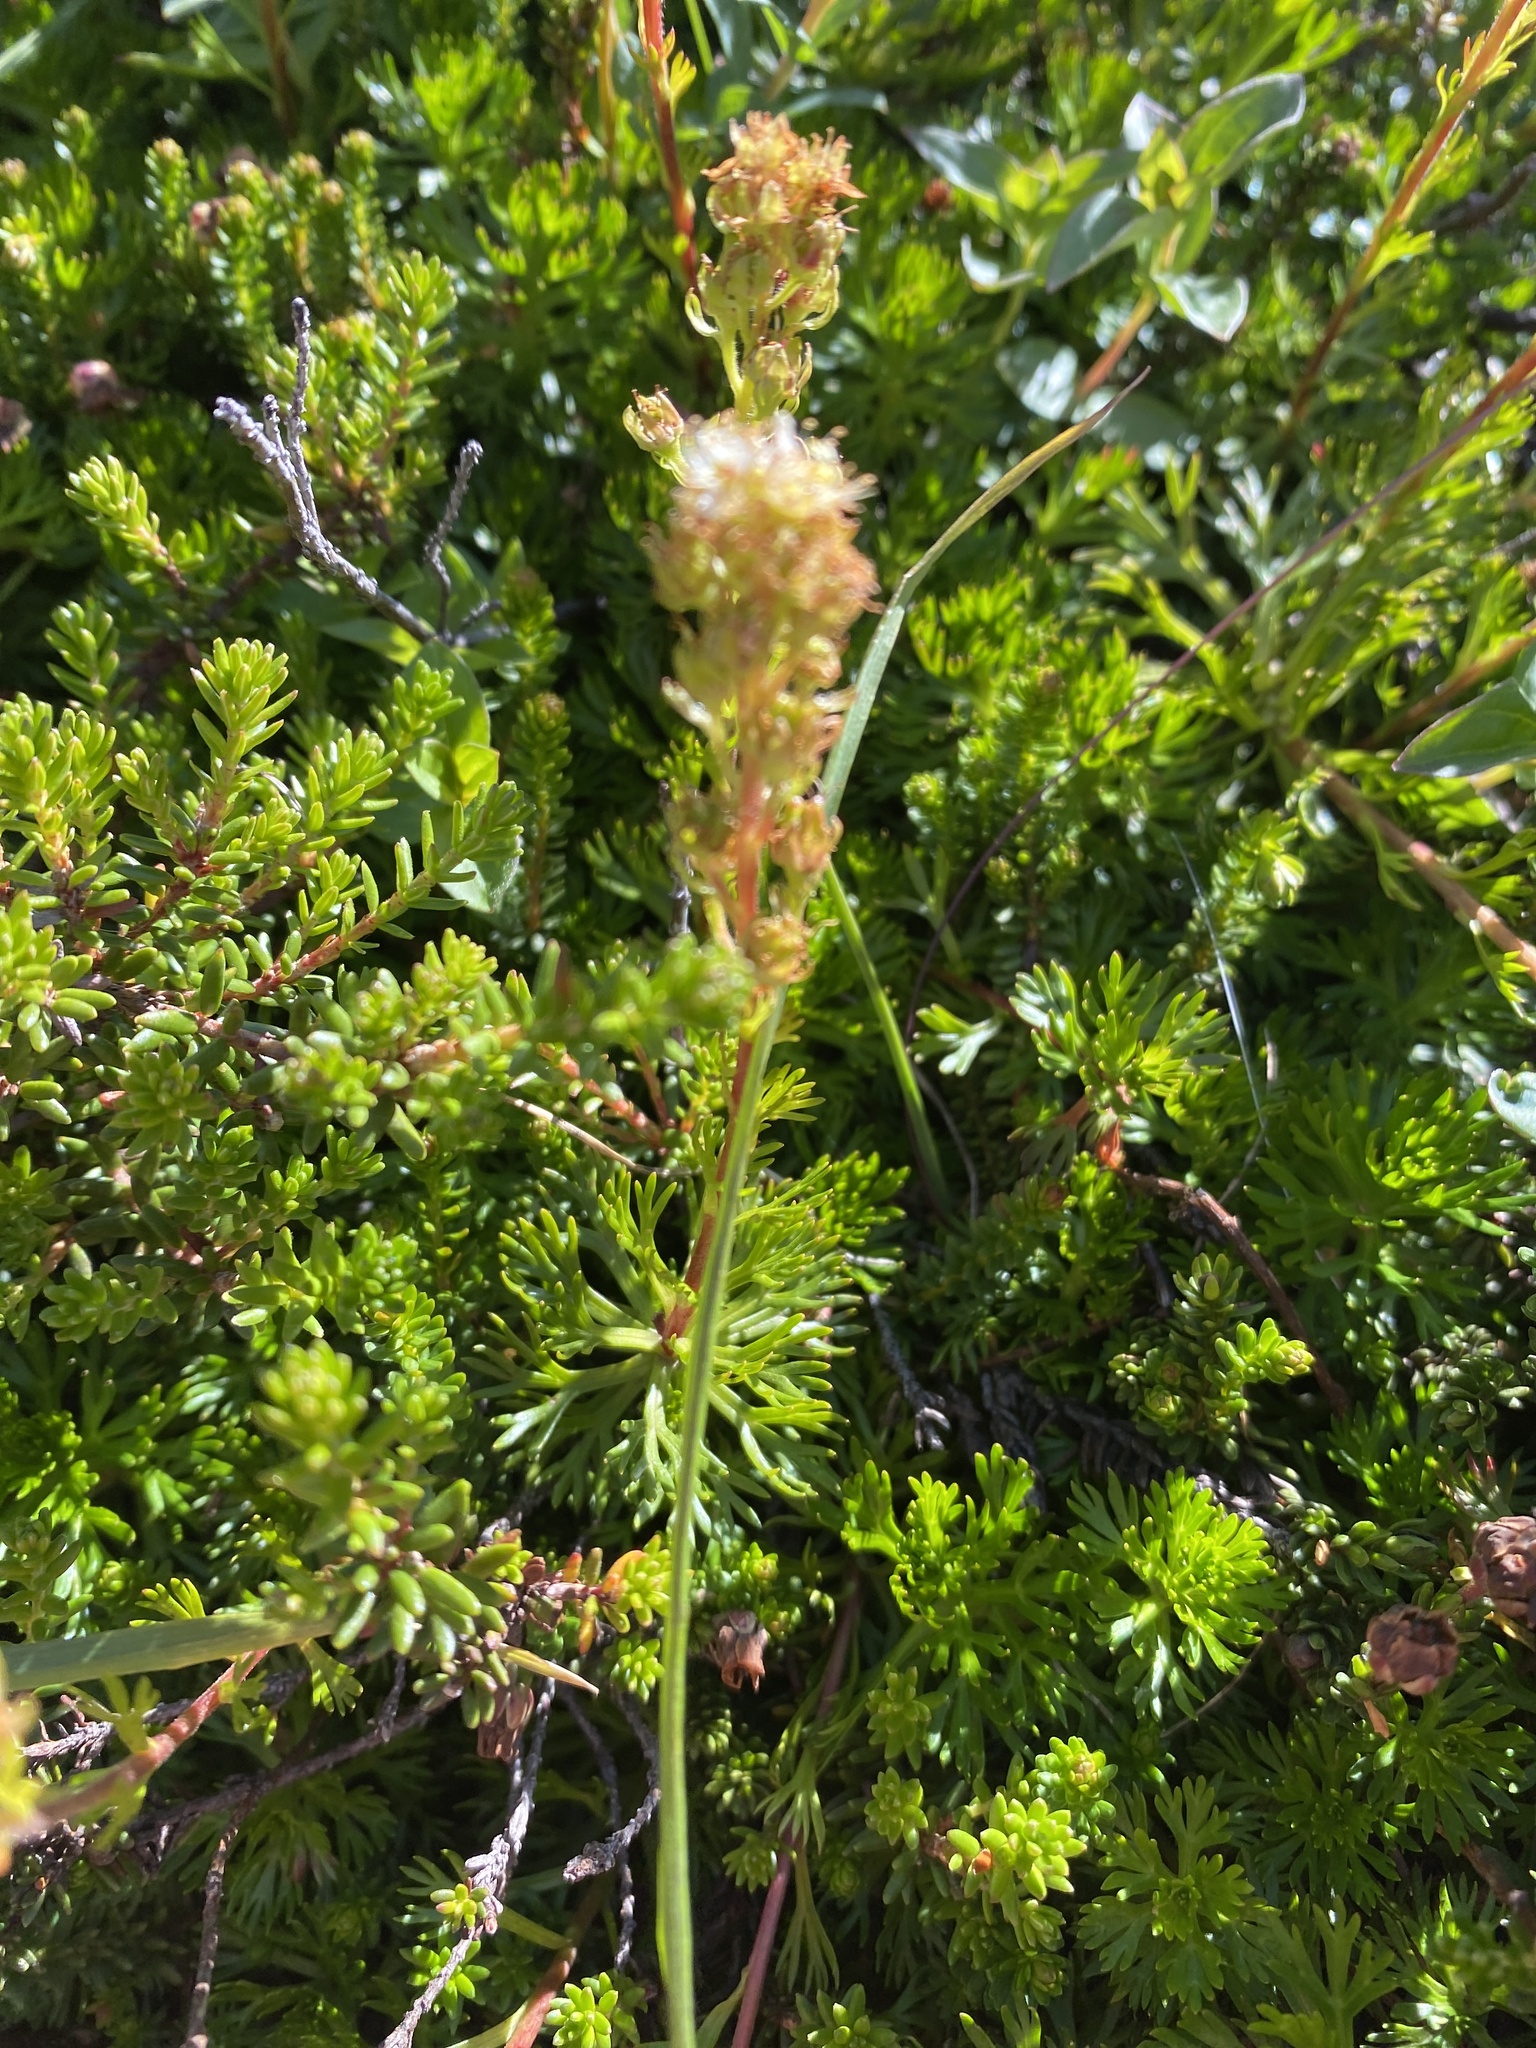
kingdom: Plantae
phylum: Tracheophyta
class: Magnoliopsida
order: Rosales
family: Rosaceae
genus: Luetkea
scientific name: Luetkea pectinata
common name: Partridgefoot
